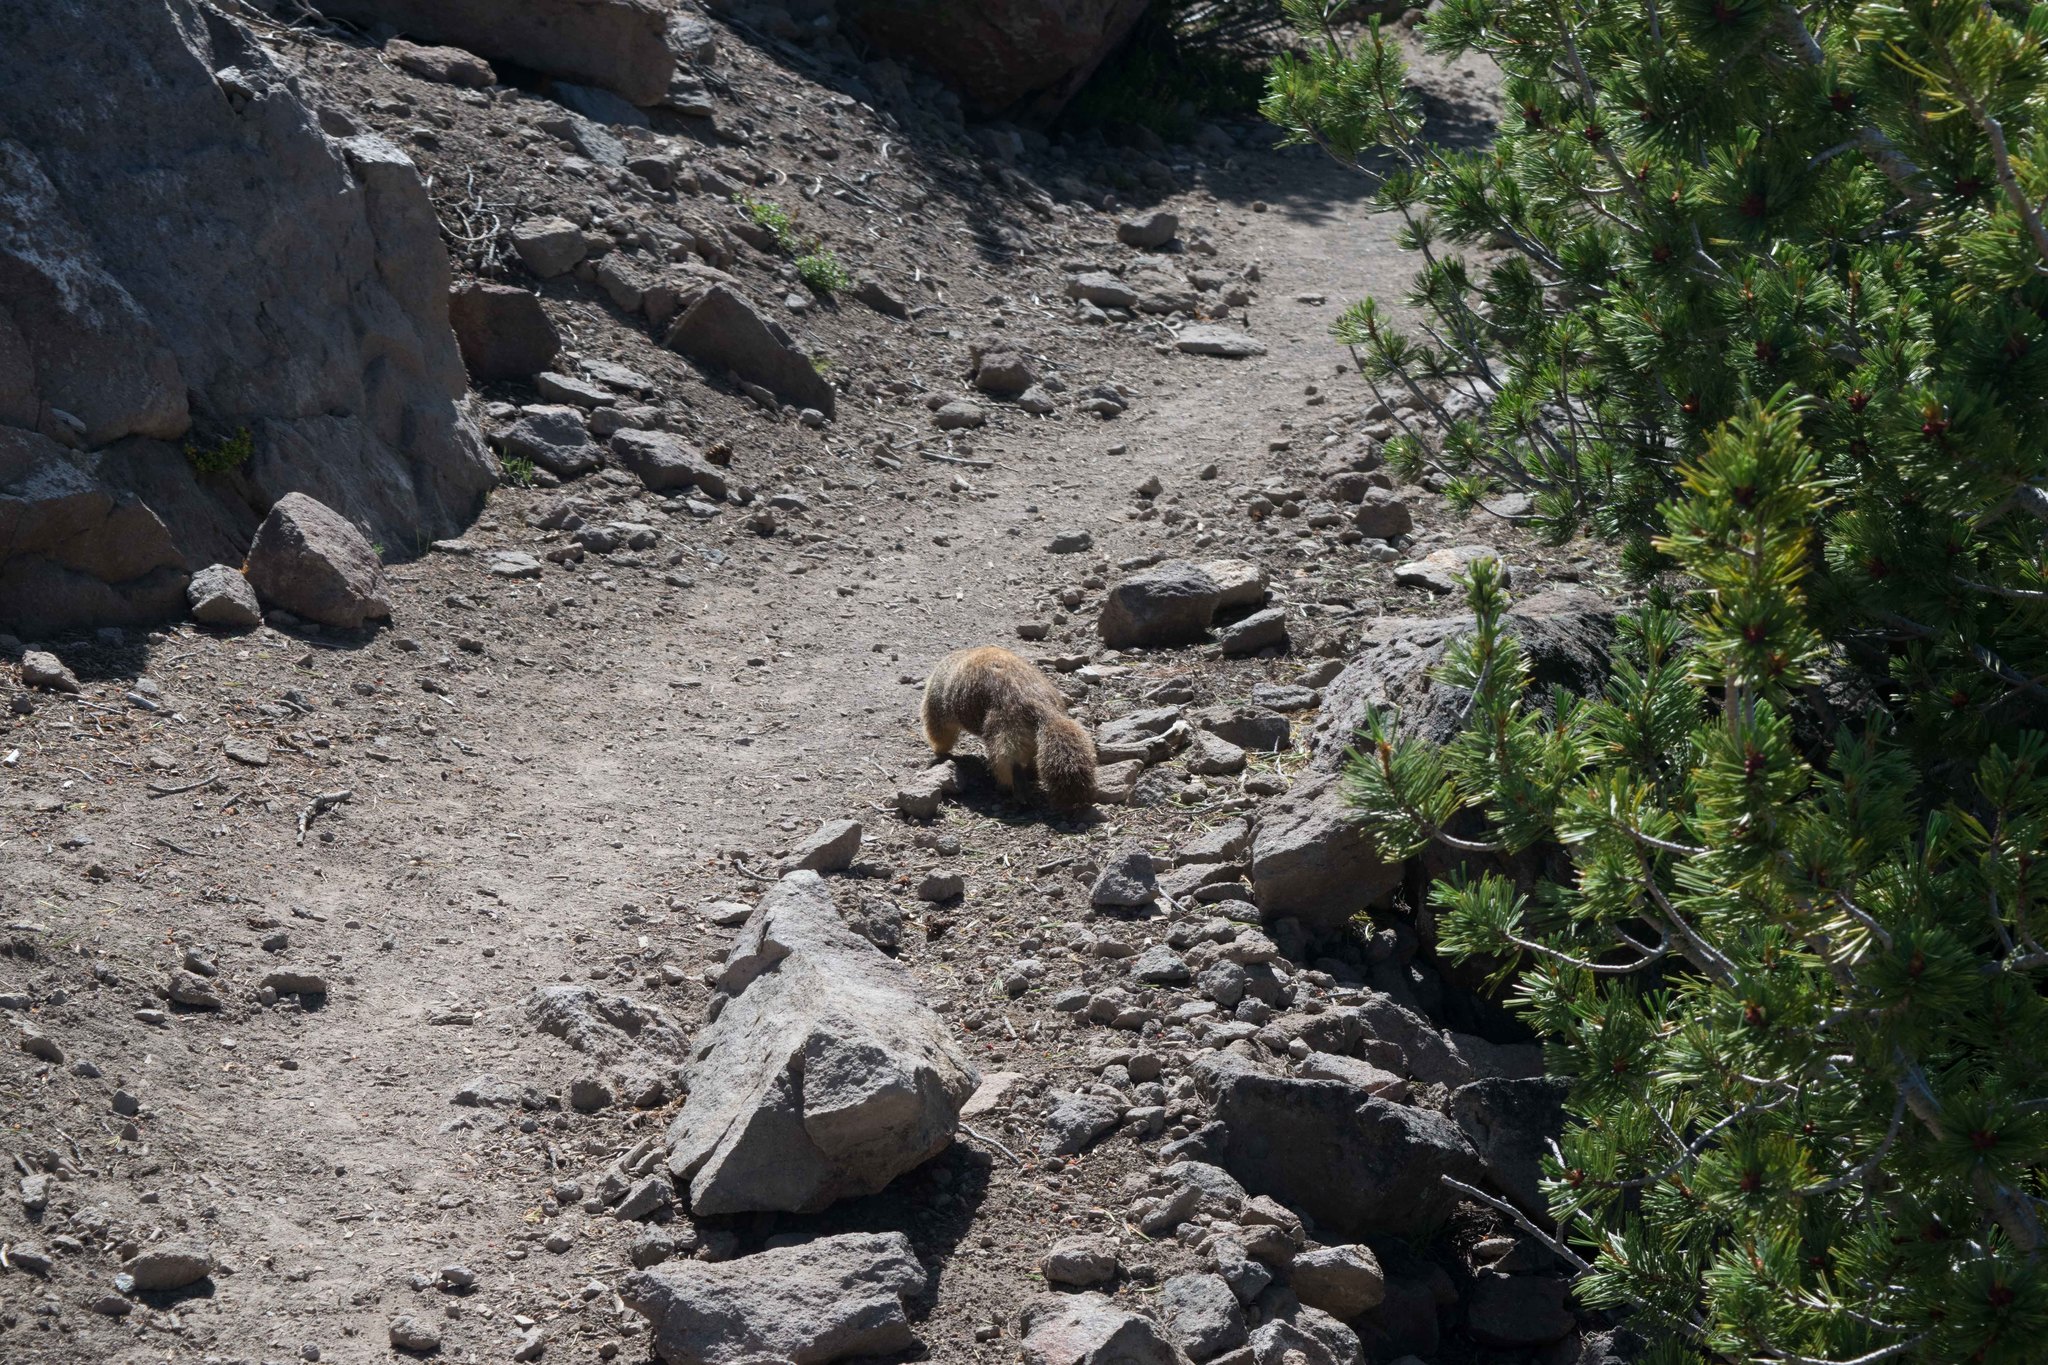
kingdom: Animalia
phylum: Chordata
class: Mammalia
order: Rodentia
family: Sciuridae
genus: Marmota
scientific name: Marmota flaviventris
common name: Yellow-bellied marmot
